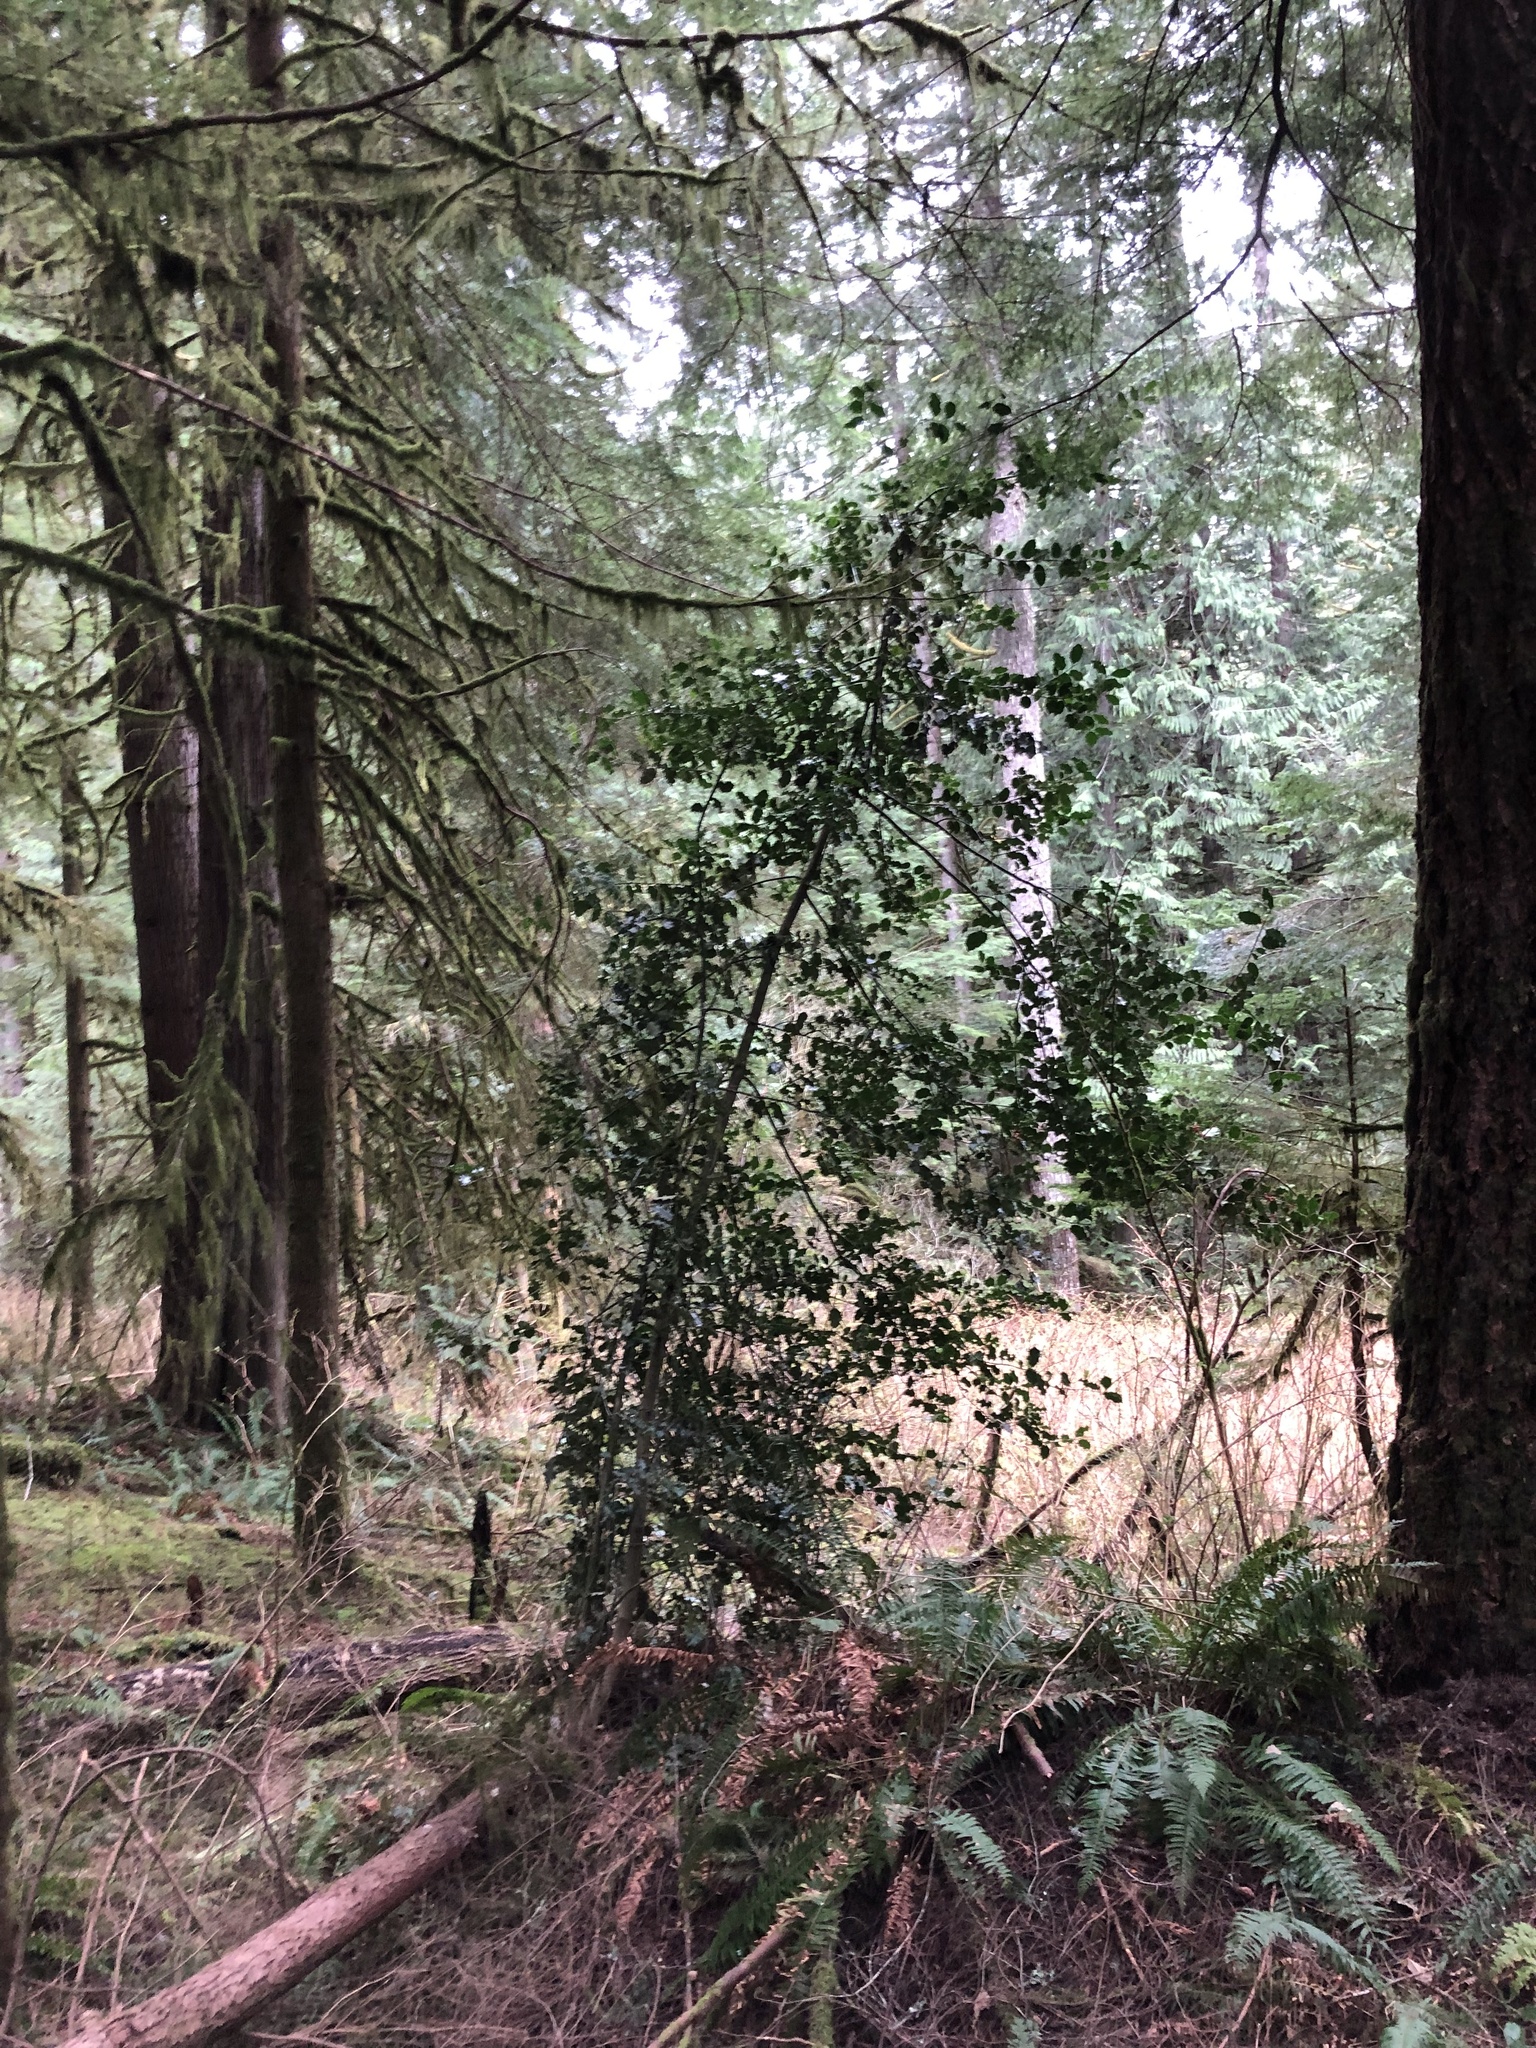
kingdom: Plantae
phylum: Tracheophyta
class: Magnoliopsida
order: Aquifoliales
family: Aquifoliaceae
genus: Ilex
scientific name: Ilex aquifolium
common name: English holly
